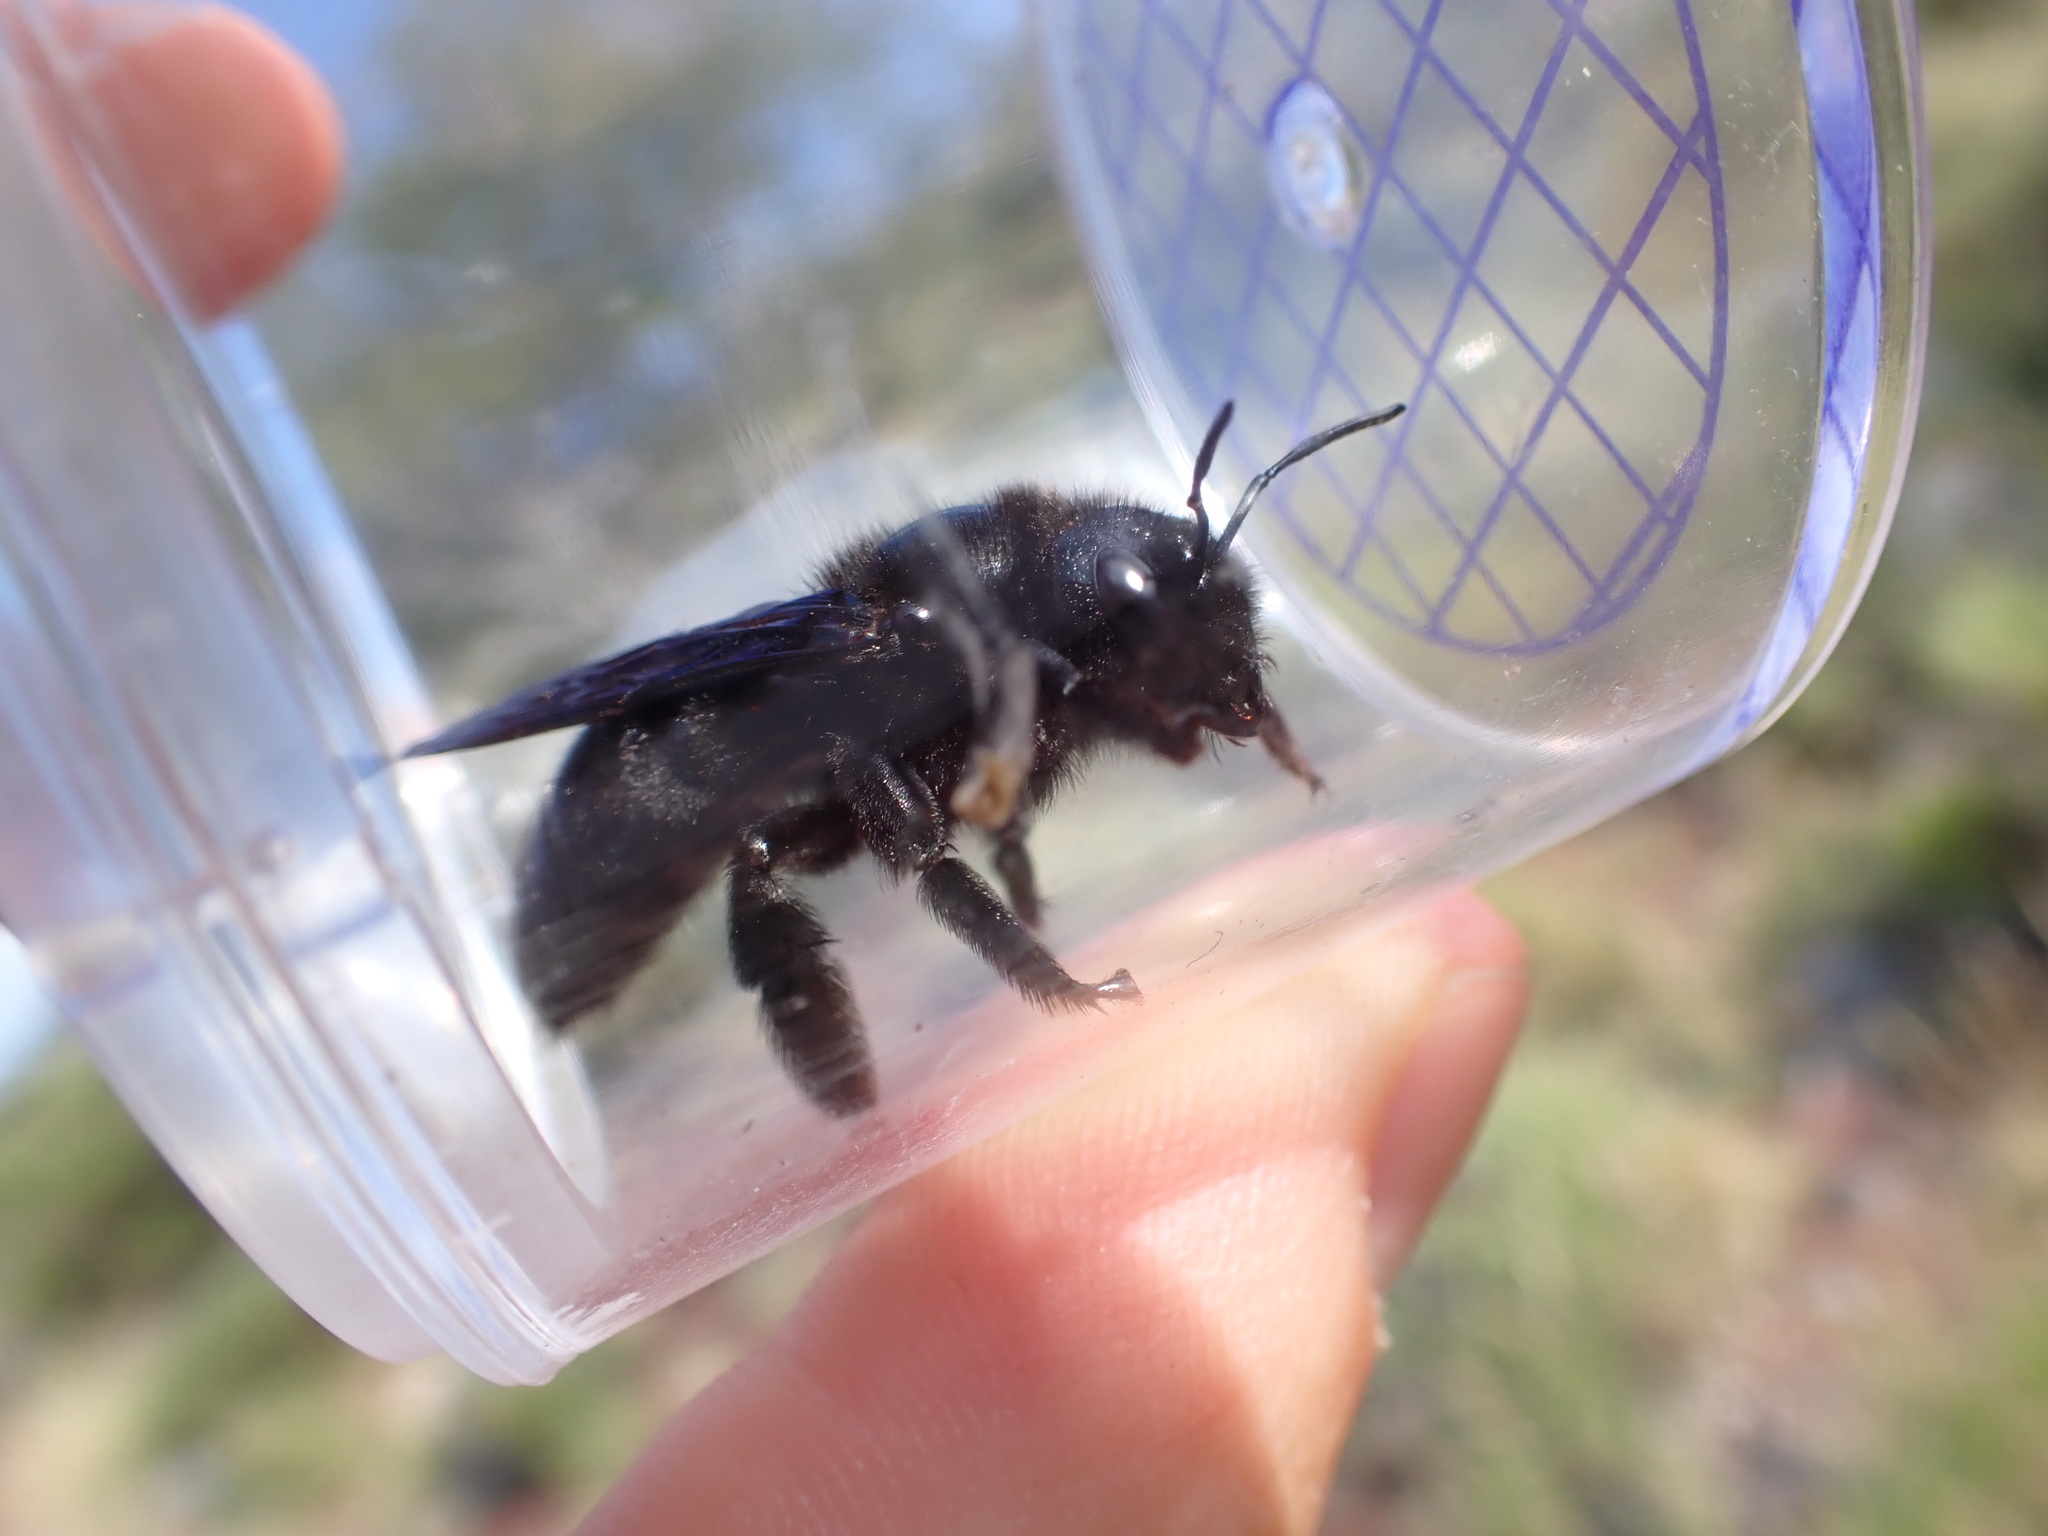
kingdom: Animalia
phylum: Arthropoda
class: Insecta
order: Hymenoptera
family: Apidae
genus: Xylocopa
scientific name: Xylocopa violacea
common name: Violet carpenter bee
